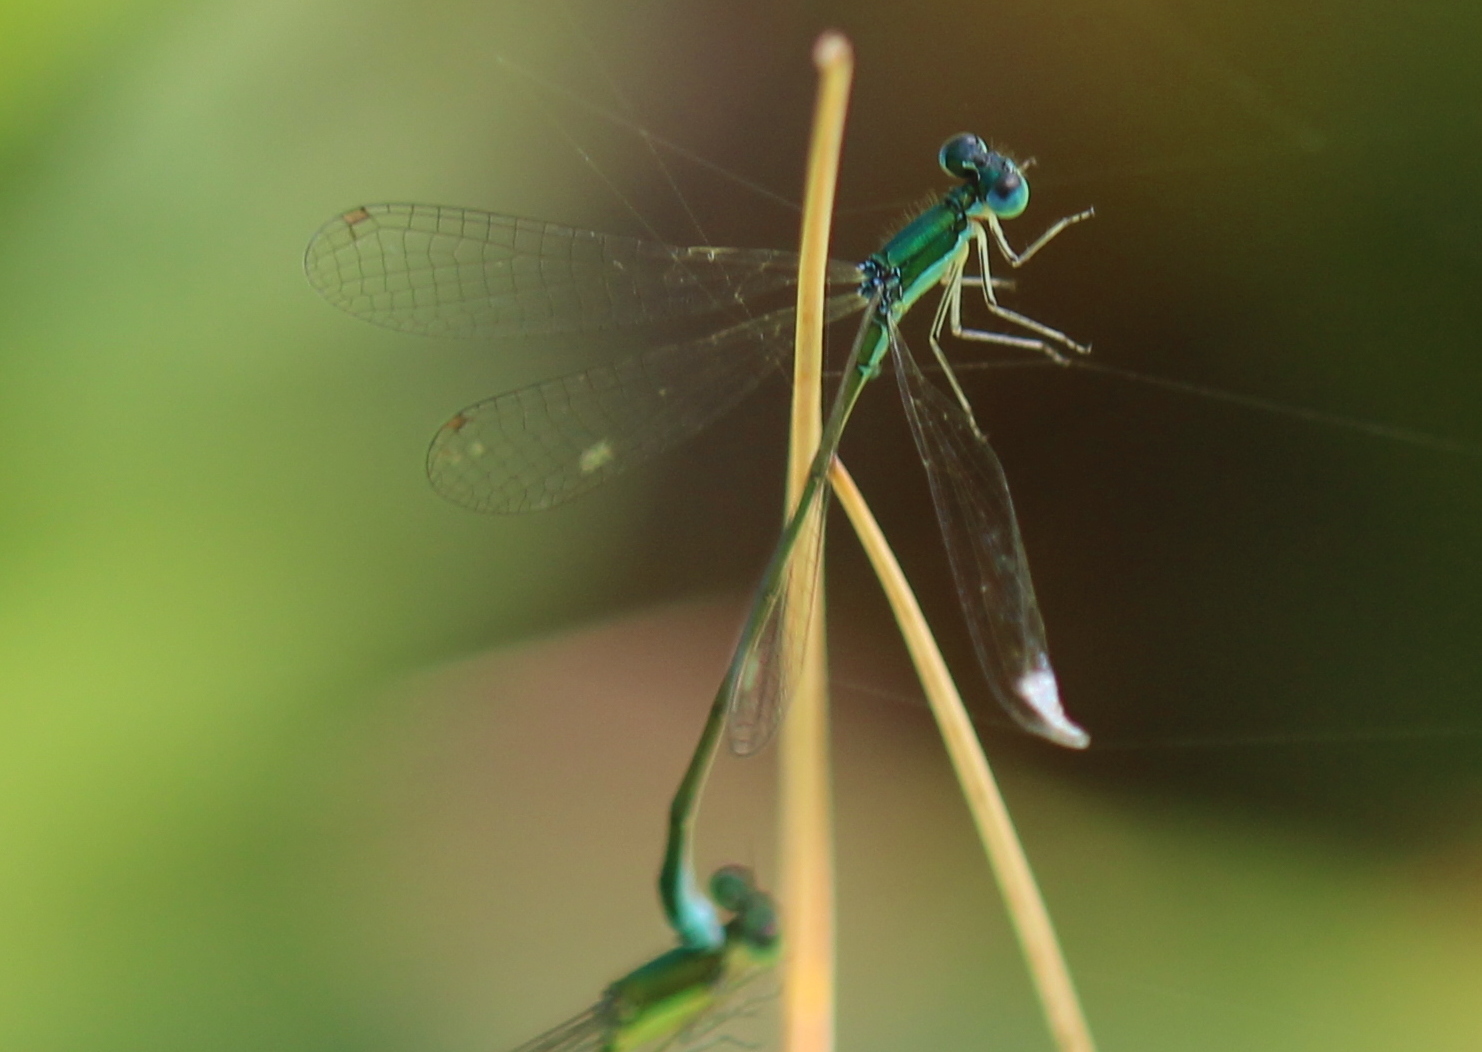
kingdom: Animalia
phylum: Arthropoda
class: Insecta
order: Odonata
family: Coenagrionidae
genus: Nehalennia
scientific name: Nehalennia irene
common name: Sedge sprite
